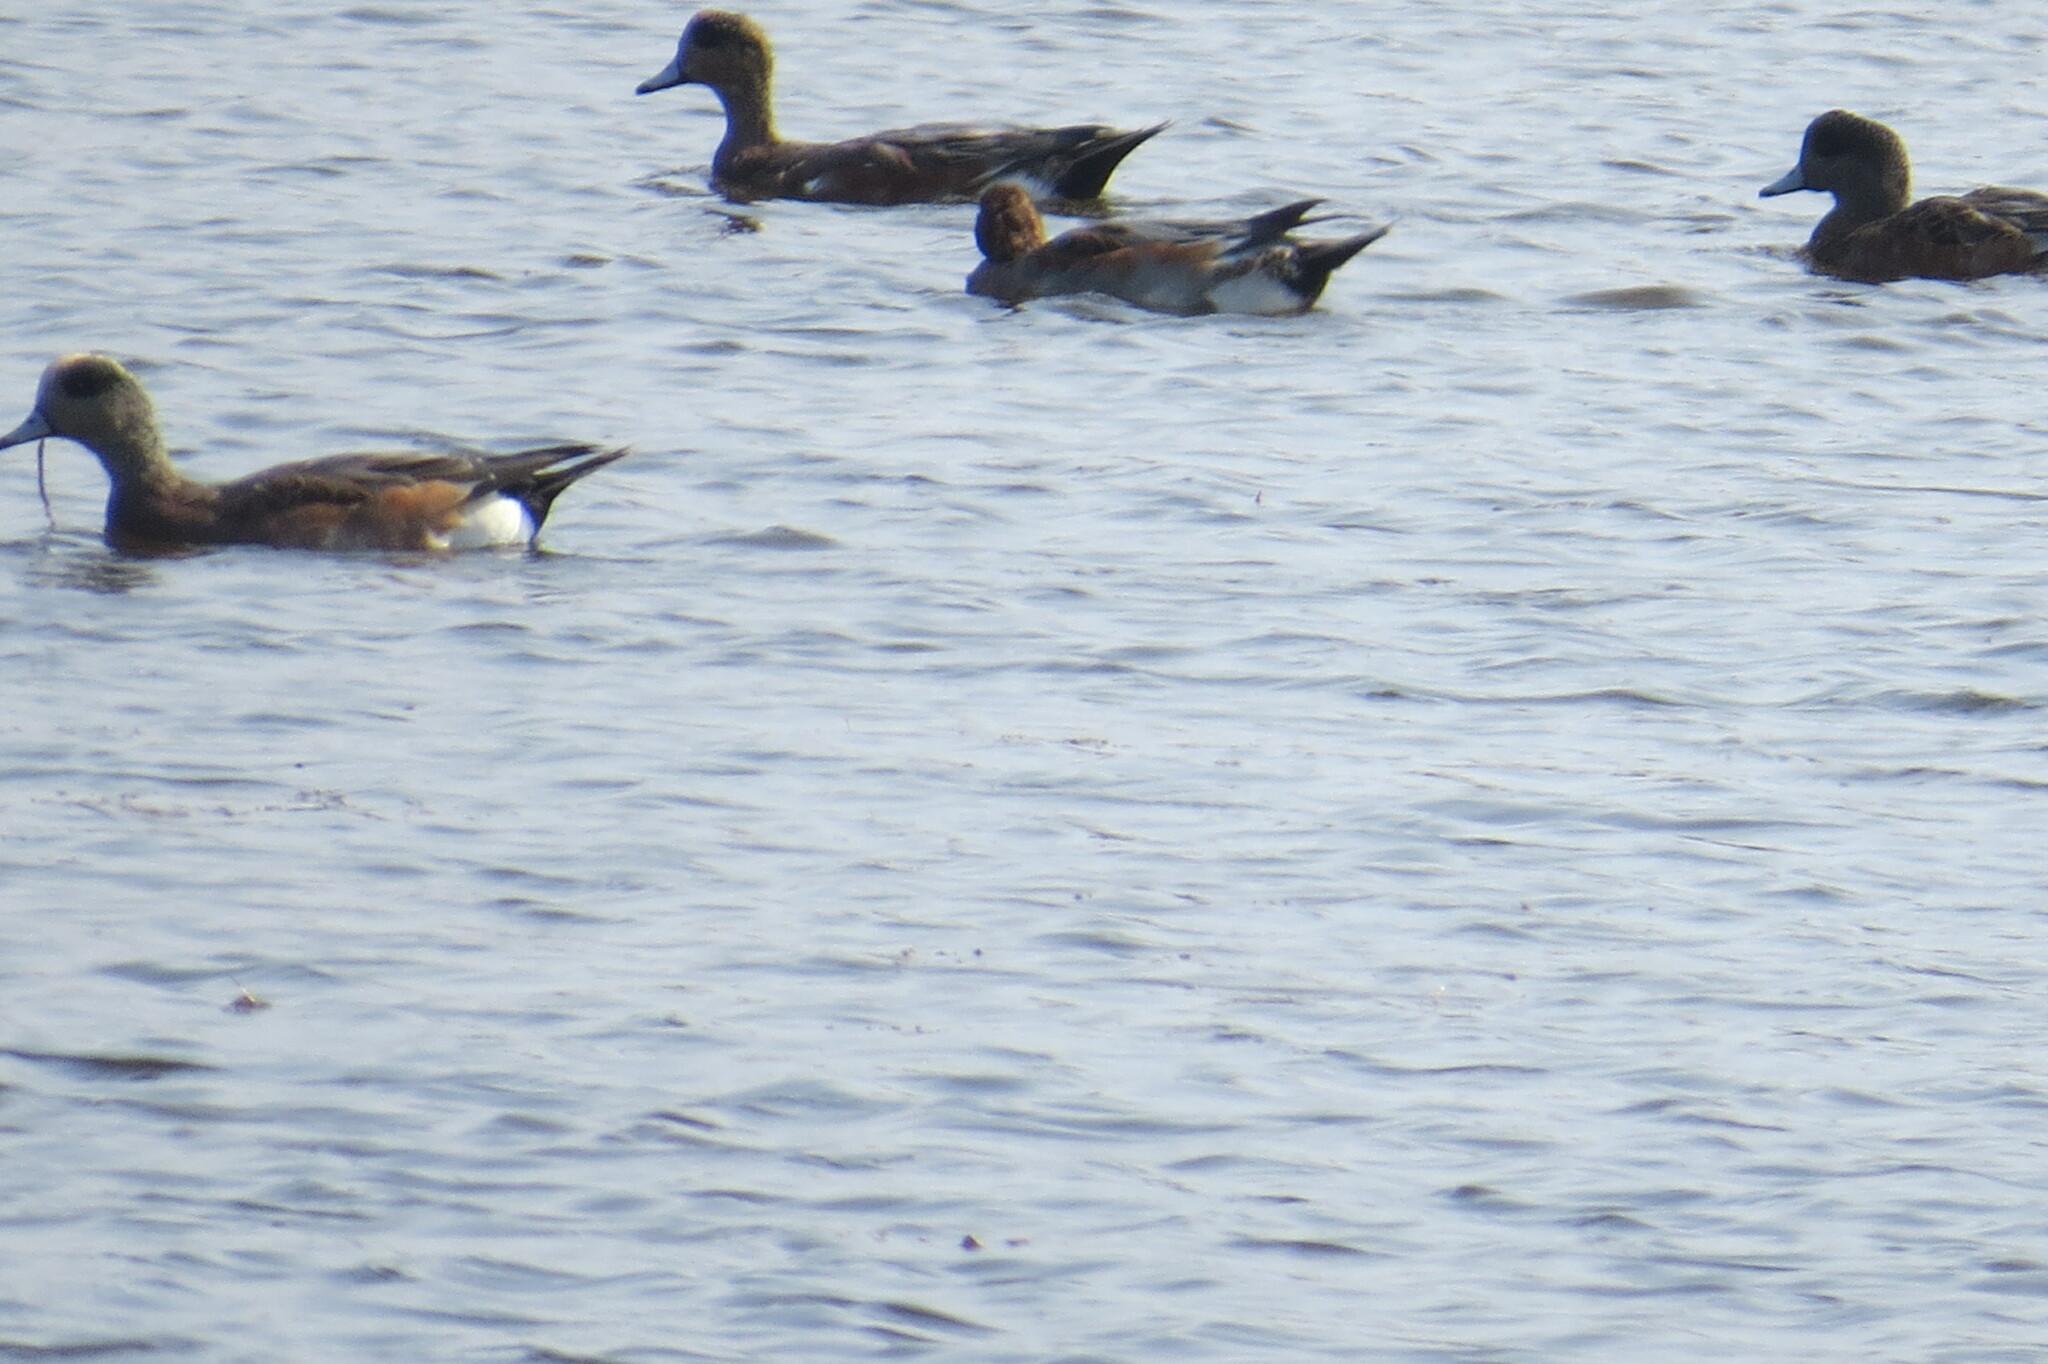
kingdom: Animalia
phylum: Chordata
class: Aves
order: Anseriformes
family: Anatidae
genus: Mareca
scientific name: Mareca americana
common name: American wigeon
